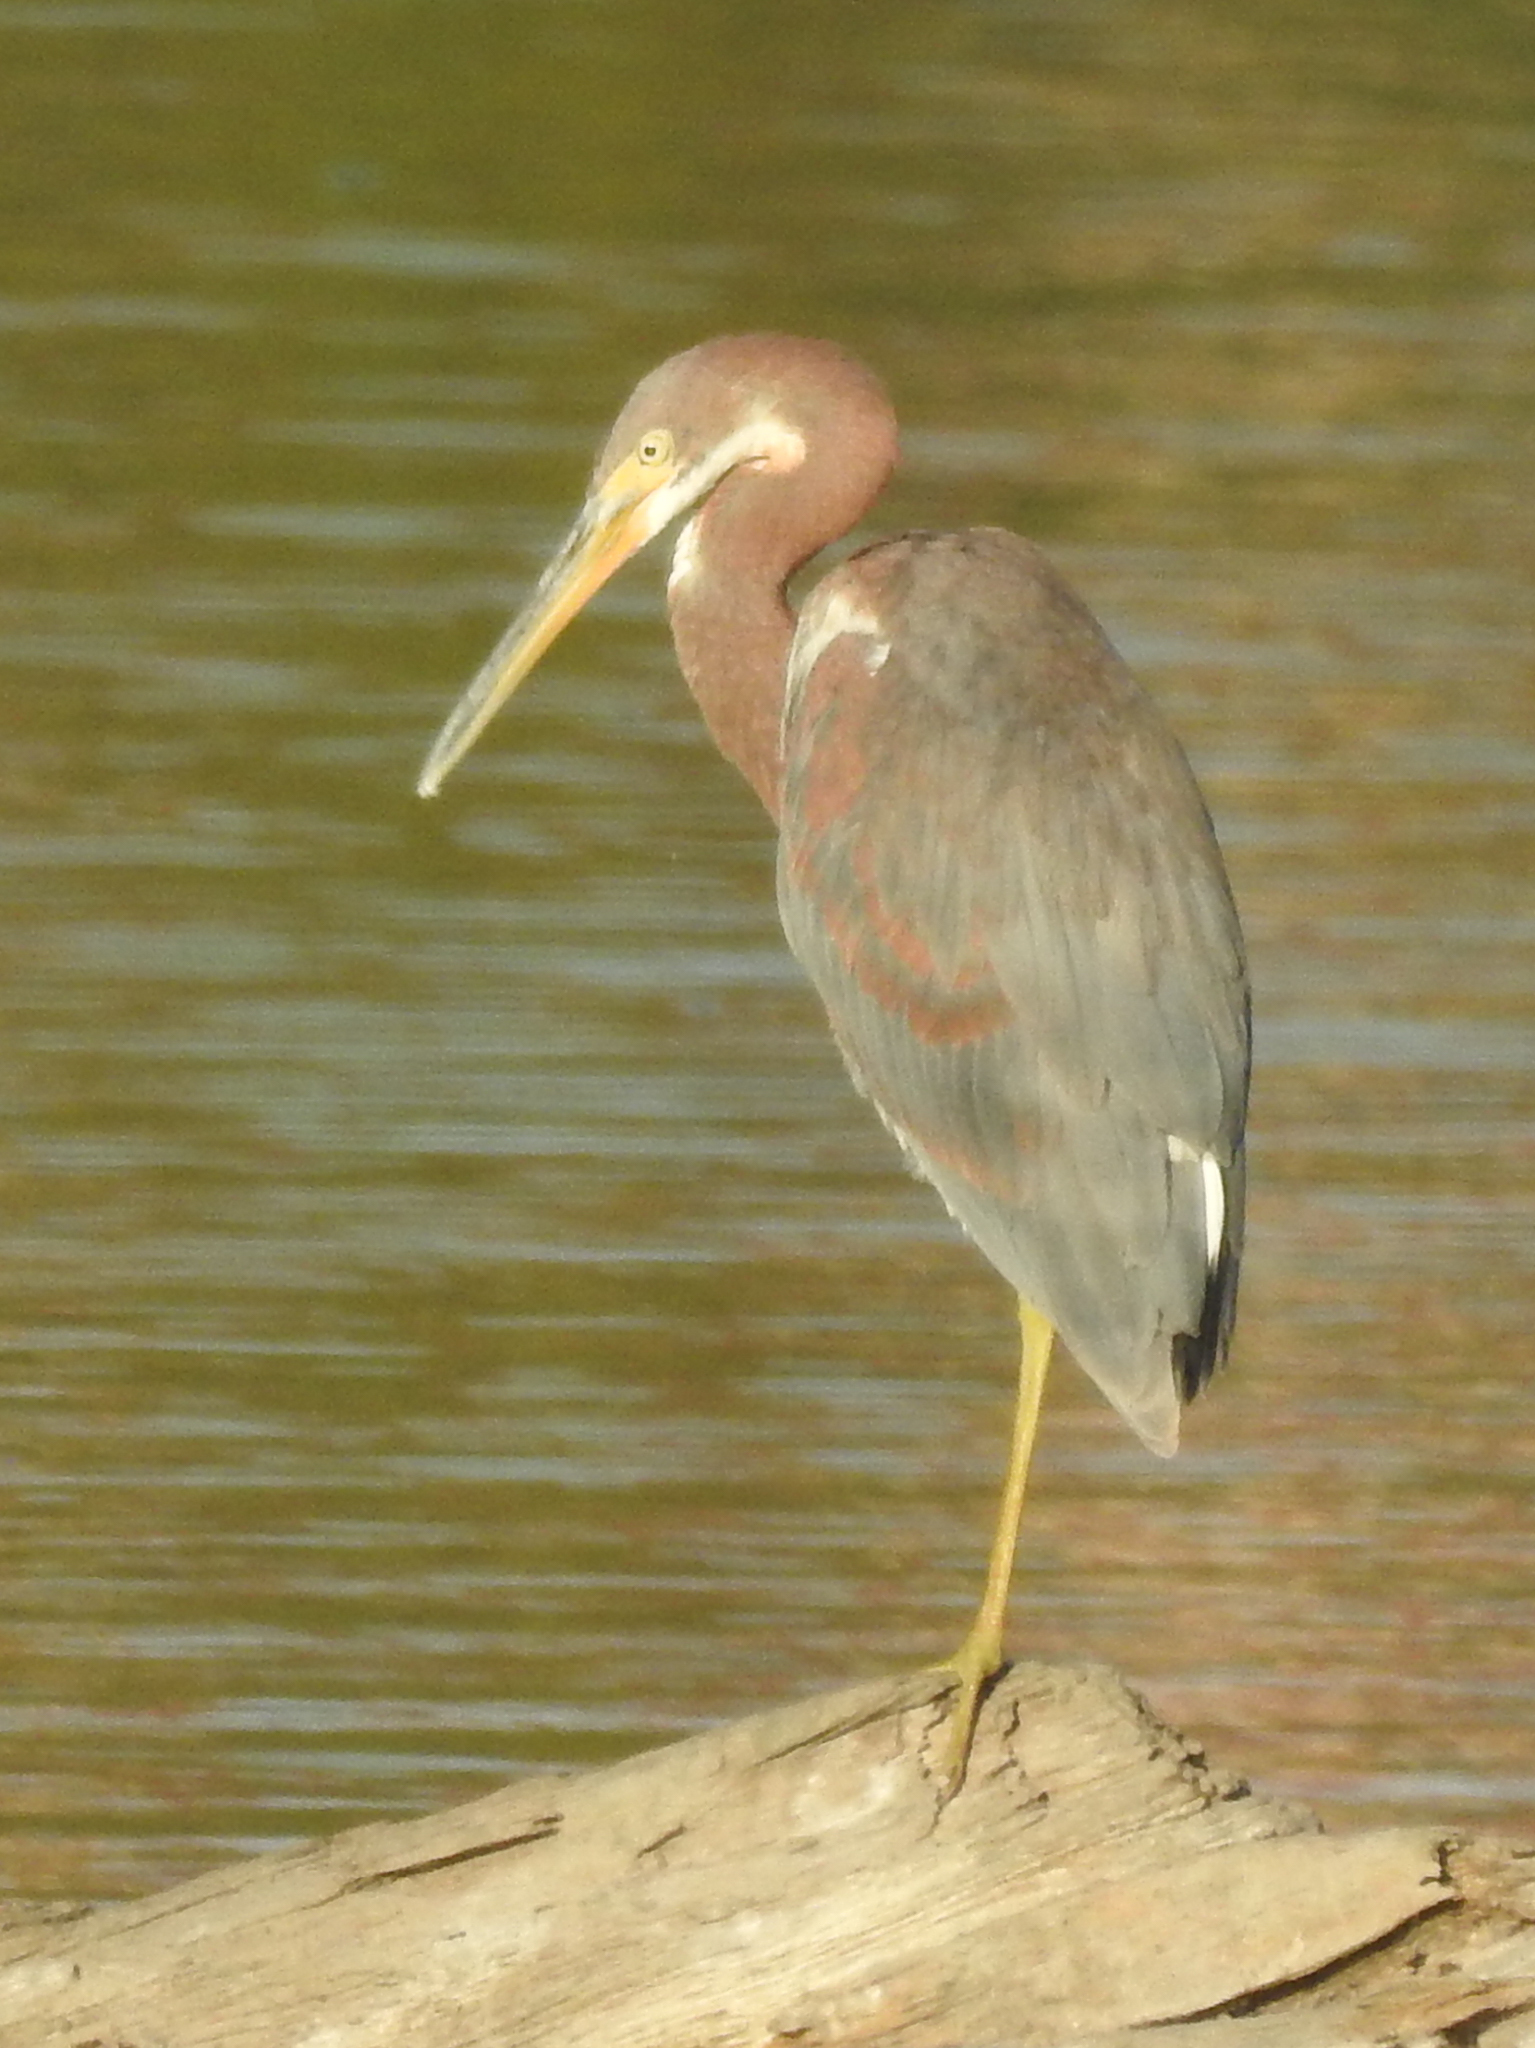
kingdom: Animalia
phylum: Chordata
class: Aves
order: Pelecaniformes
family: Ardeidae
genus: Egretta
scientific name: Egretta tricolor
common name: Tricolored heron
